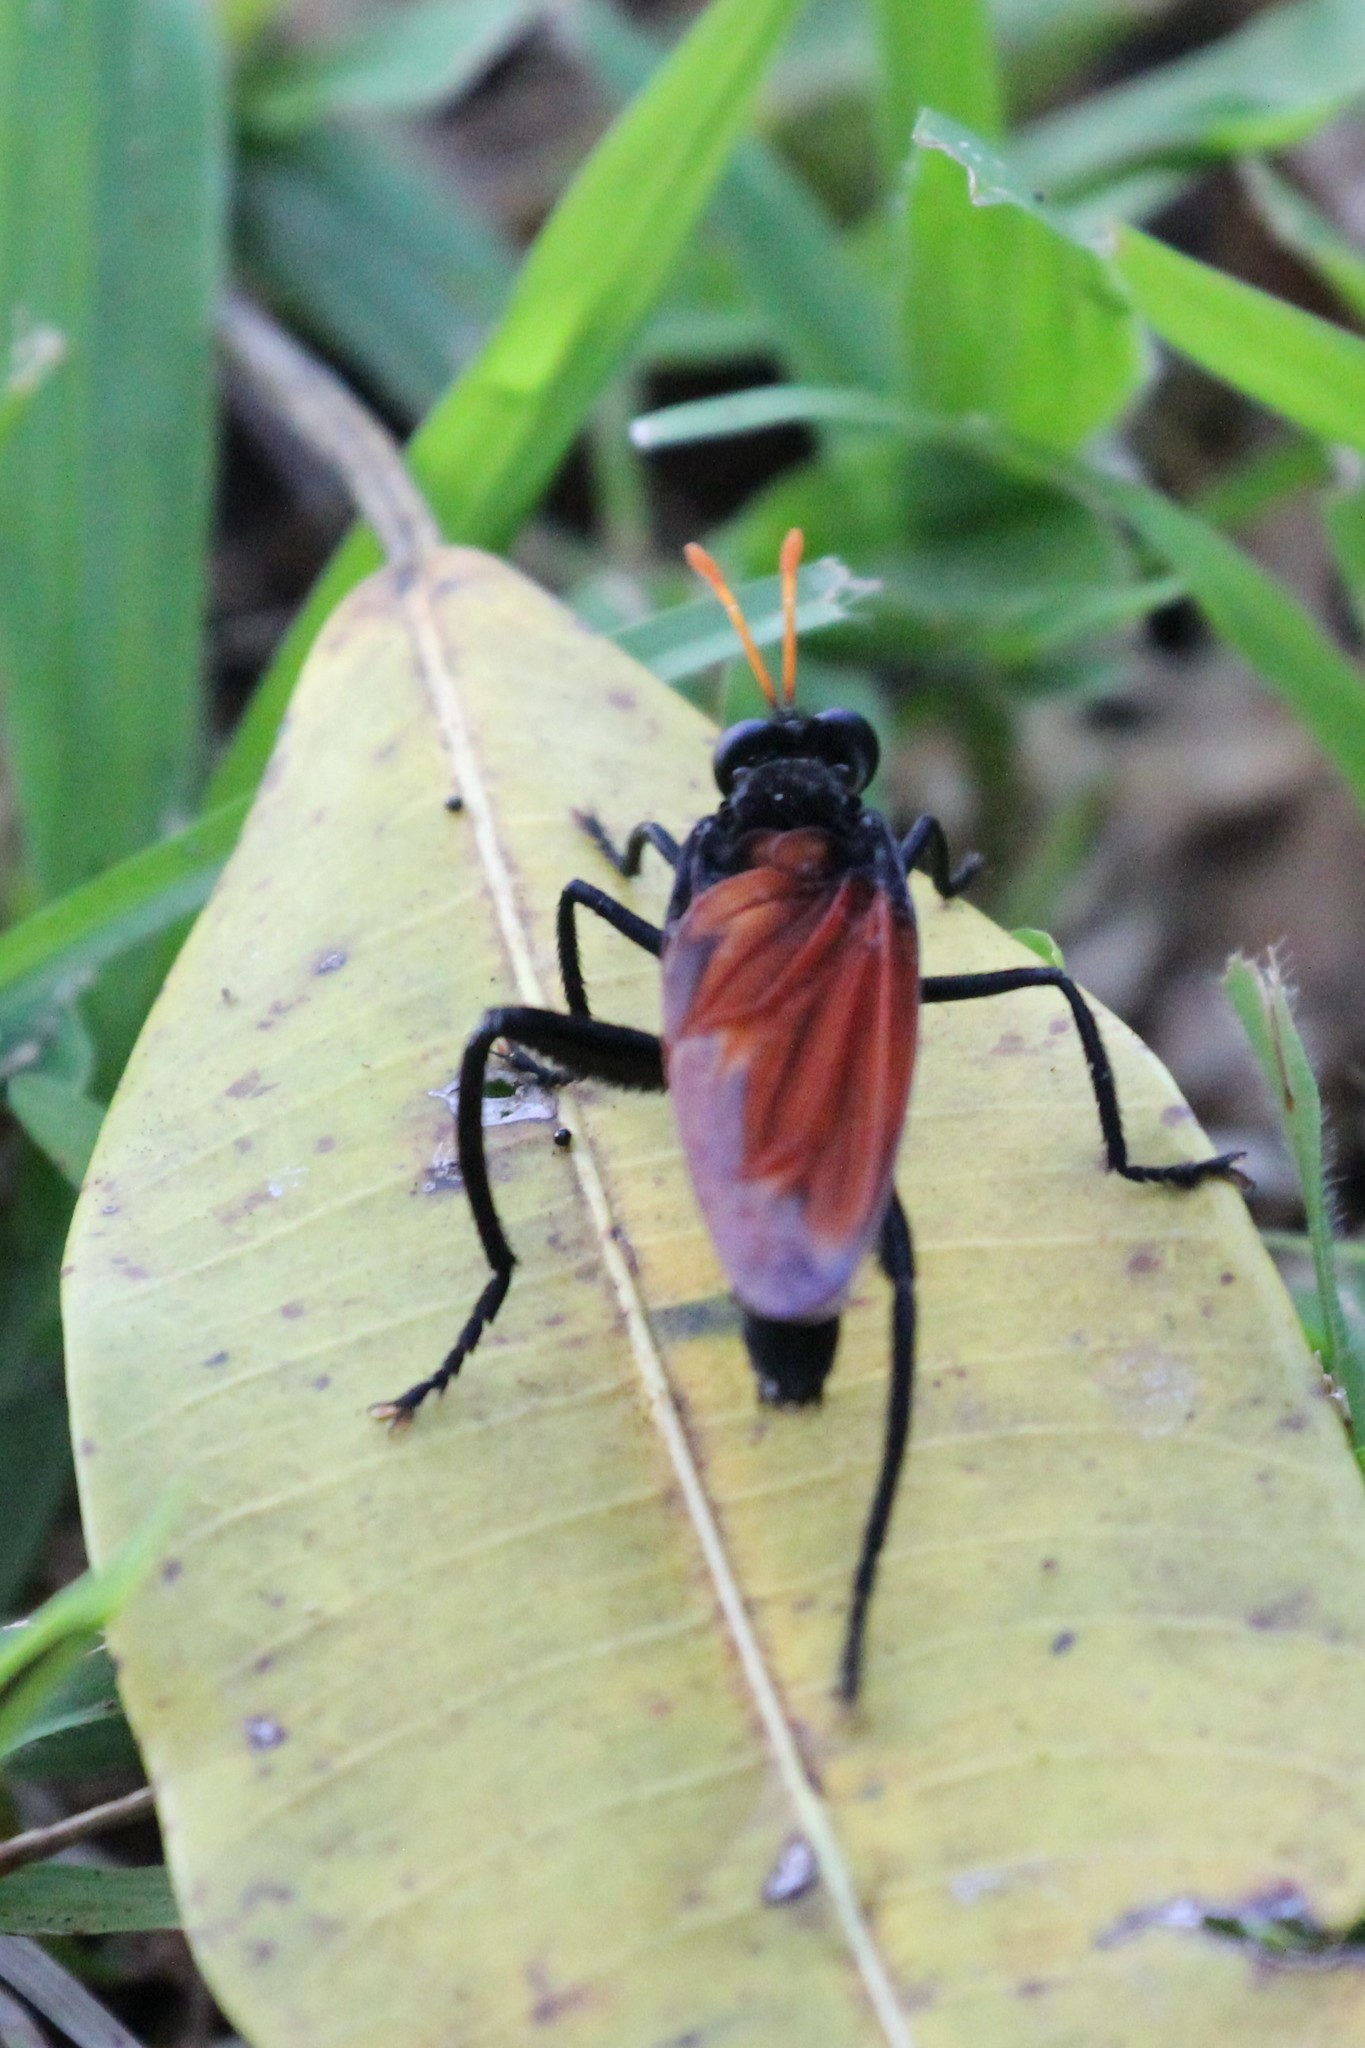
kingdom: Animalia
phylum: Arthropoda
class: Insecta
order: Diptera
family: Mydidae
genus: Mydas
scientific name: Mydas rubidapex
